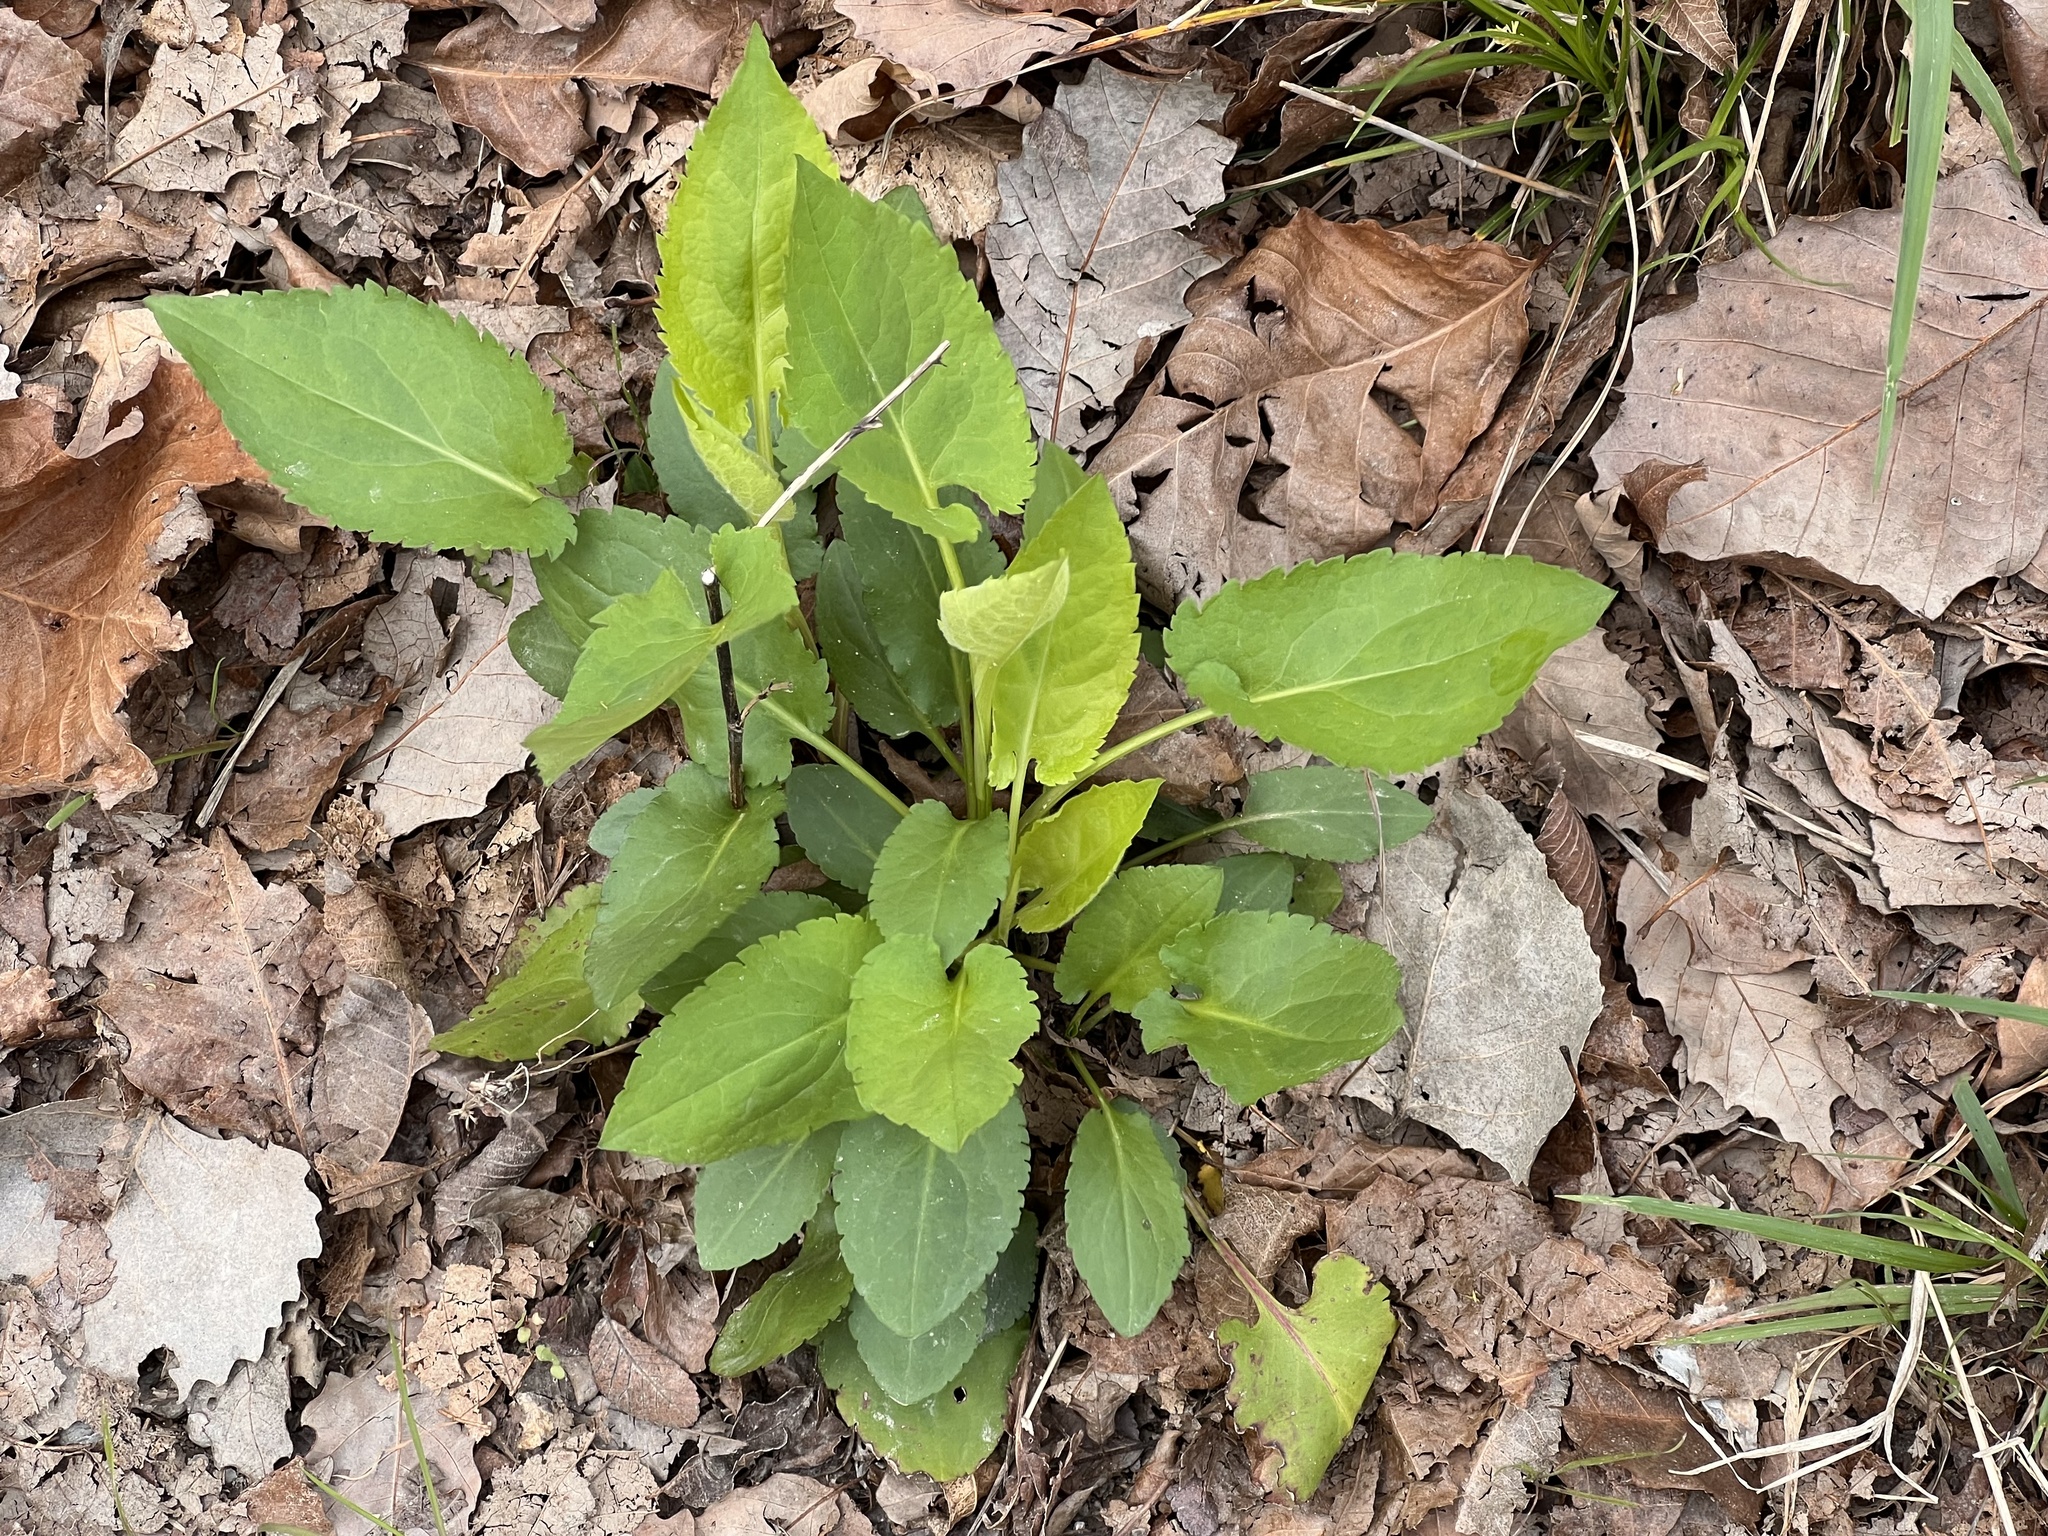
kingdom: Plantae
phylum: Tracheophyta
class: Magnoliopsida
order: Asterales
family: Asteraceae
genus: Symphyotrichum
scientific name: Symphyotrichum drummondii
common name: Drummond's aster
